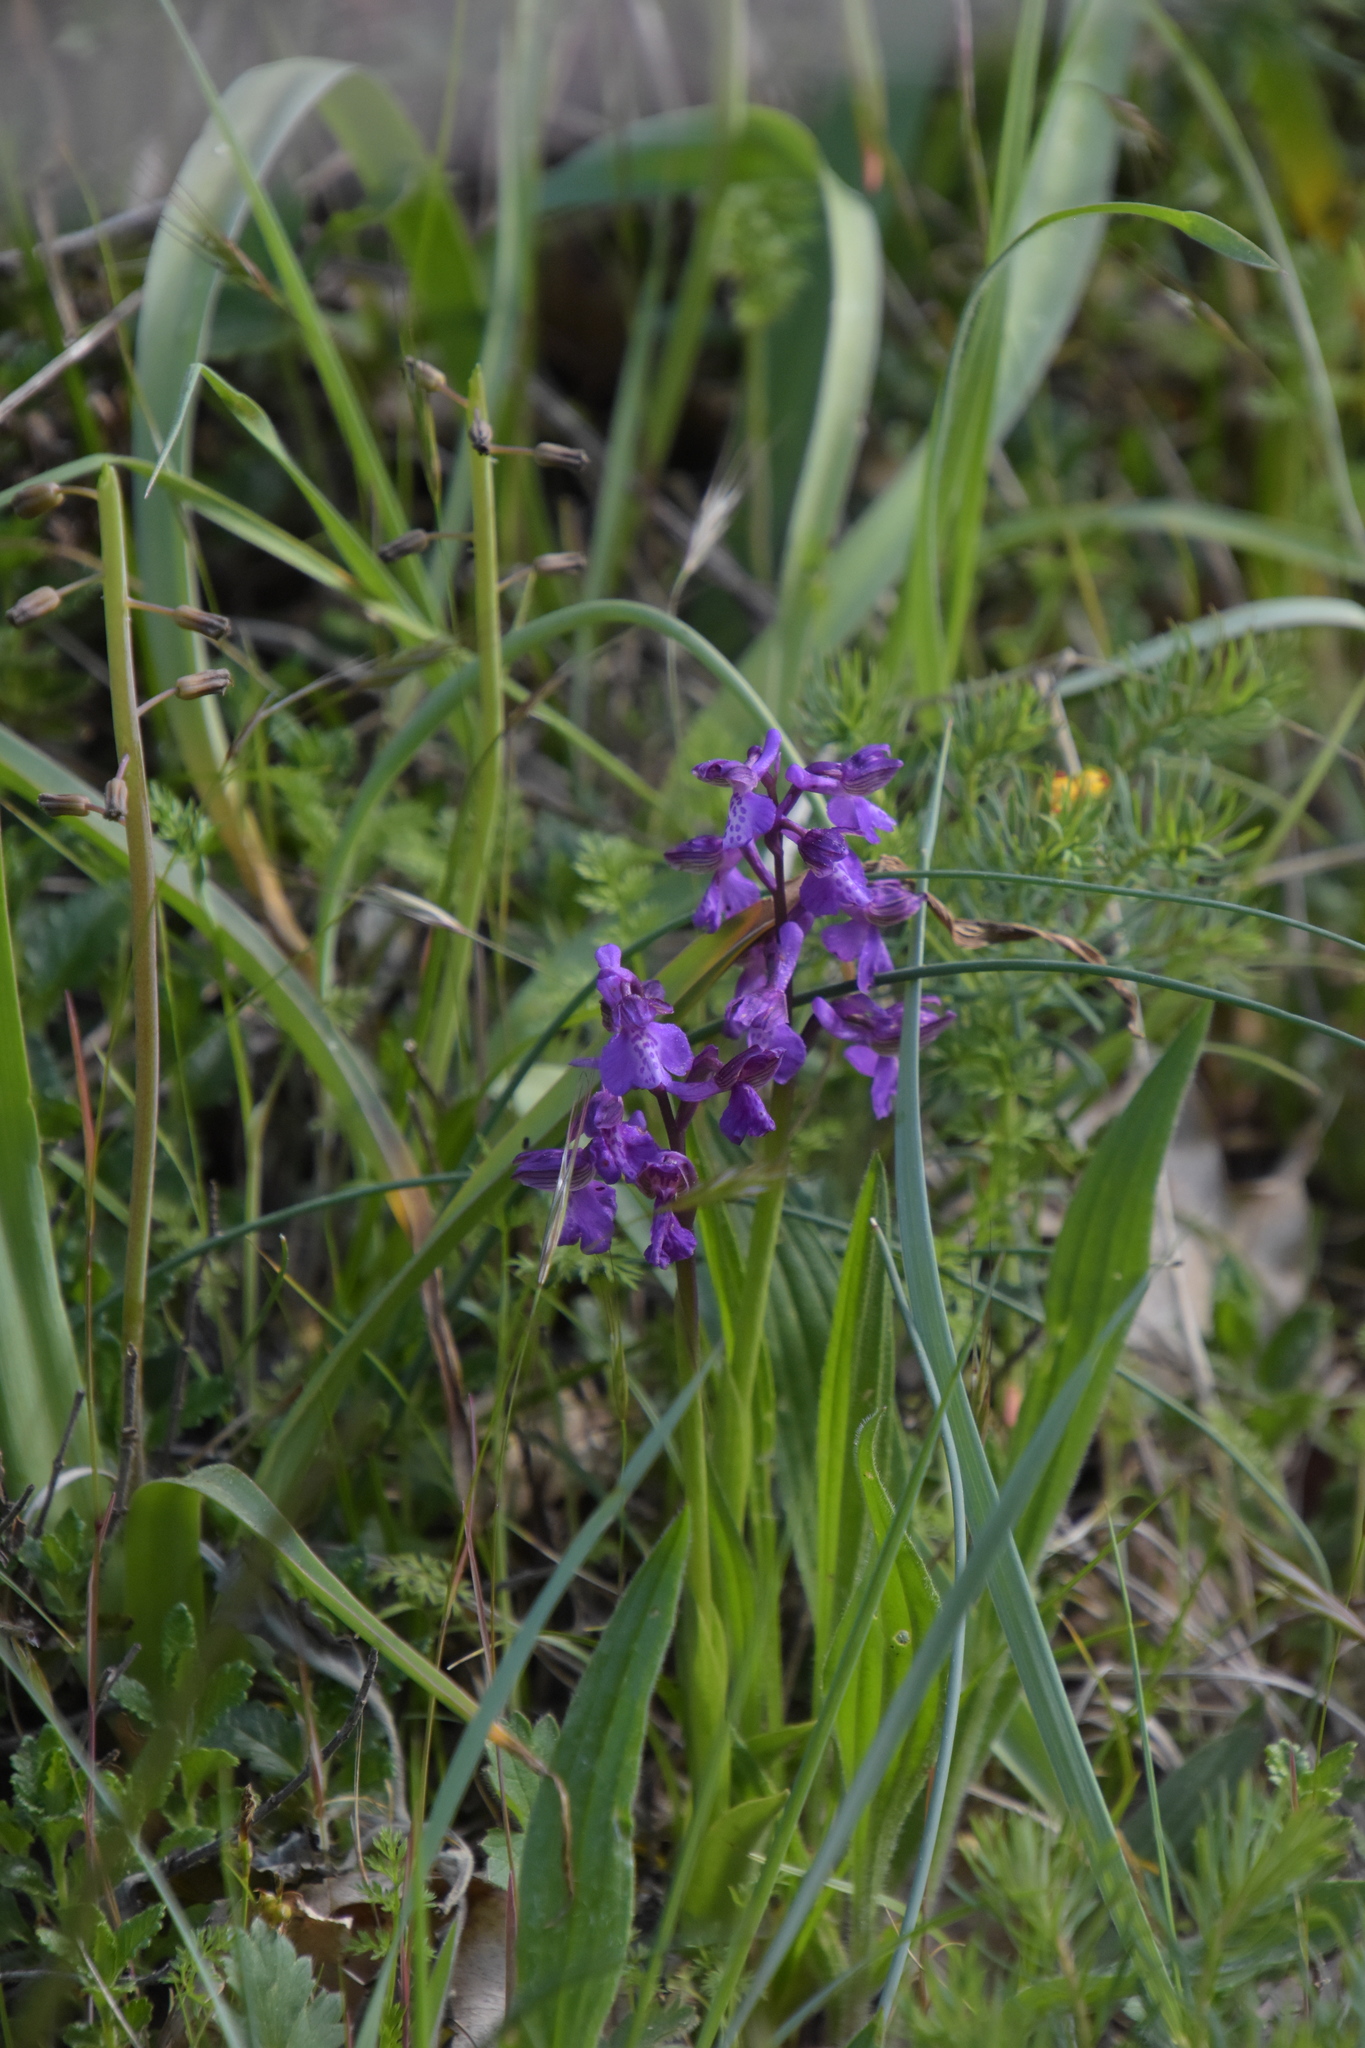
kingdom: Plantae
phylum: Tracheophyta
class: Liliopsida
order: Asparagales
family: Orchidaceae
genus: Anacamptis
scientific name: Anacamptis morio
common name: Green-winged orchid
